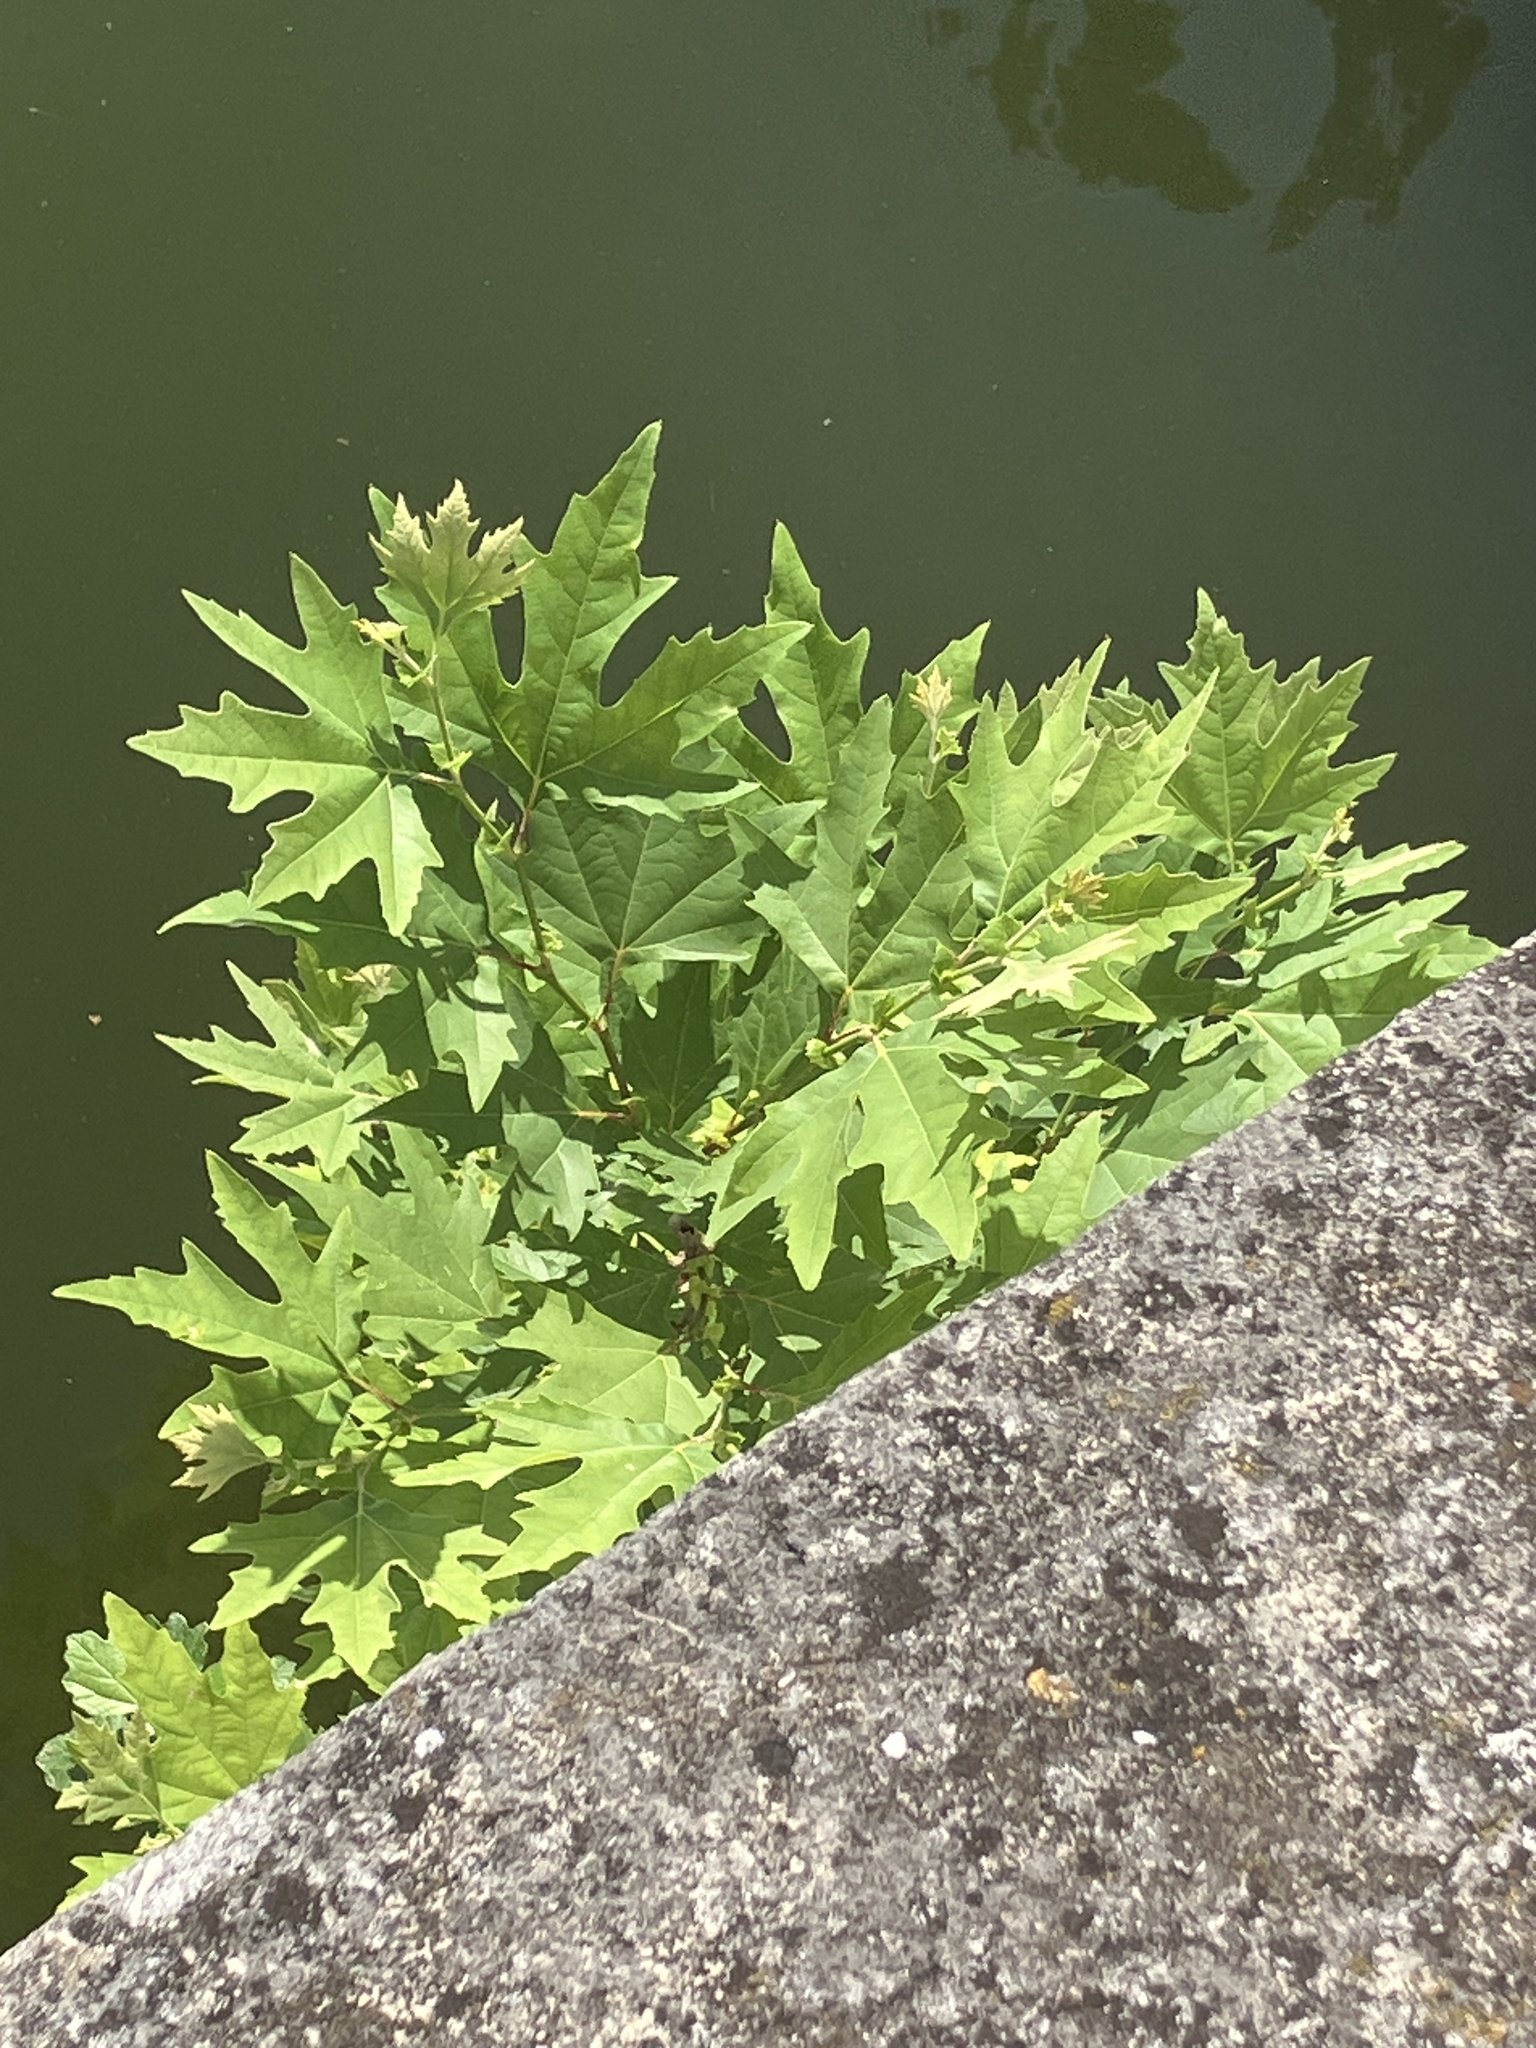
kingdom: Plantae
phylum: Tracheophyta
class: Magnoliopsida
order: Proteales
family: Platanaceae
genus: Platanus
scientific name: Platanus orientalis
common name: Oriental plane
